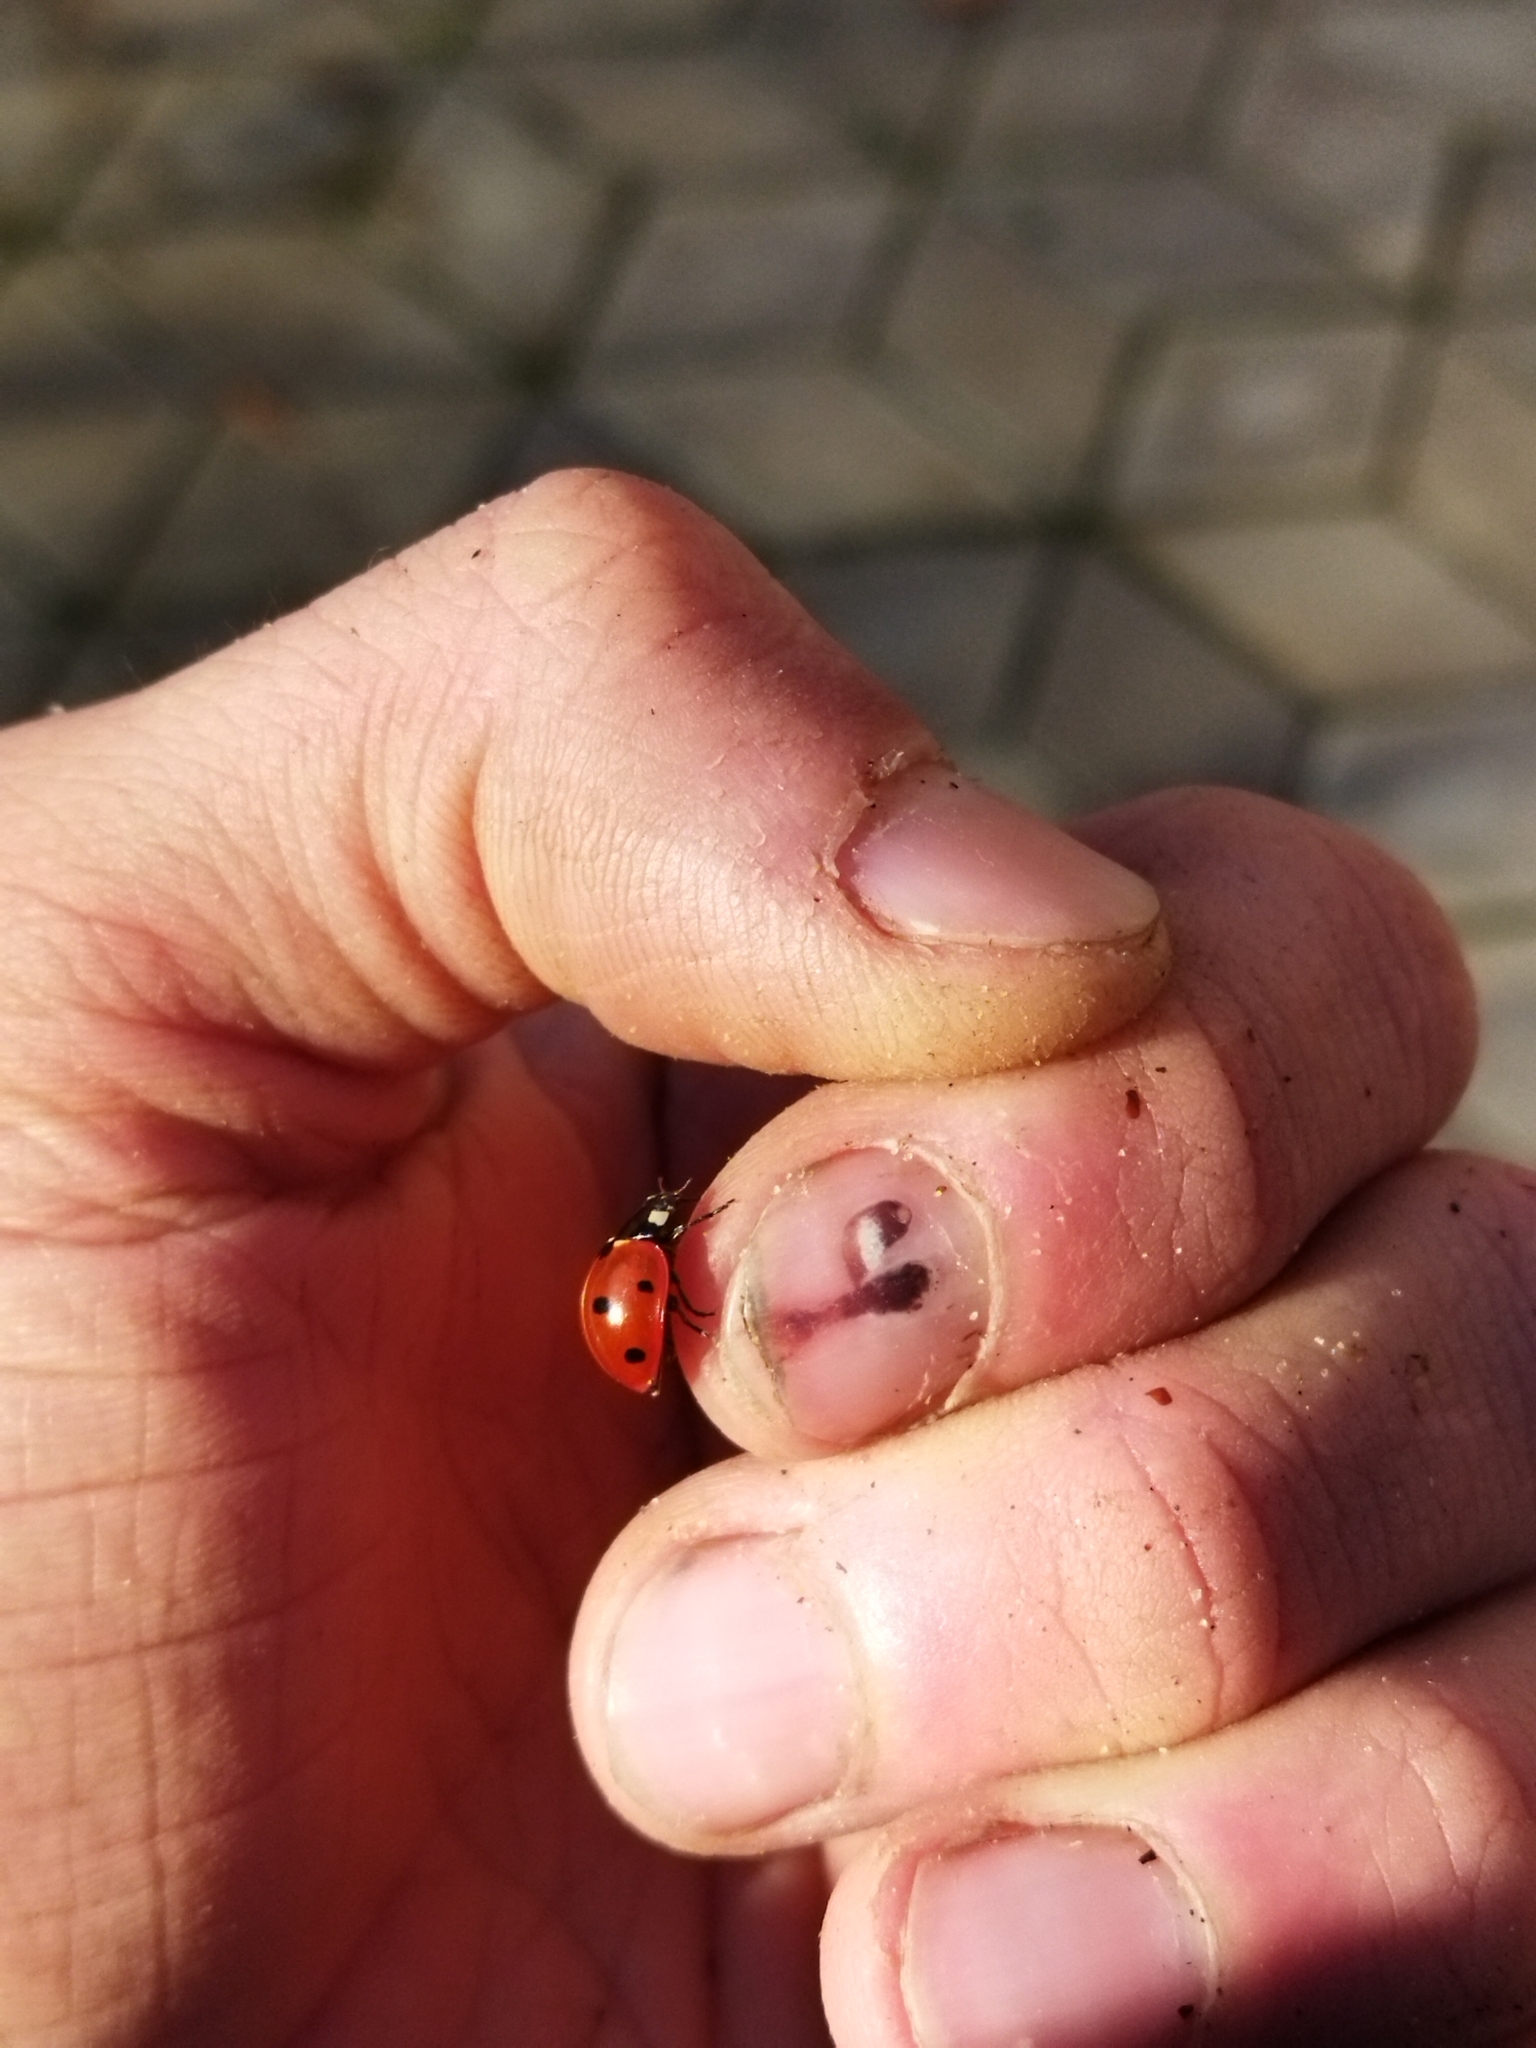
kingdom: Animalia
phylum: Arthropoda
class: Insecta
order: Coleoptera
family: Coccinellidae
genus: Coccinella
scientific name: Coccinella septempunctata
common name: Sevenspotted lady beetle
